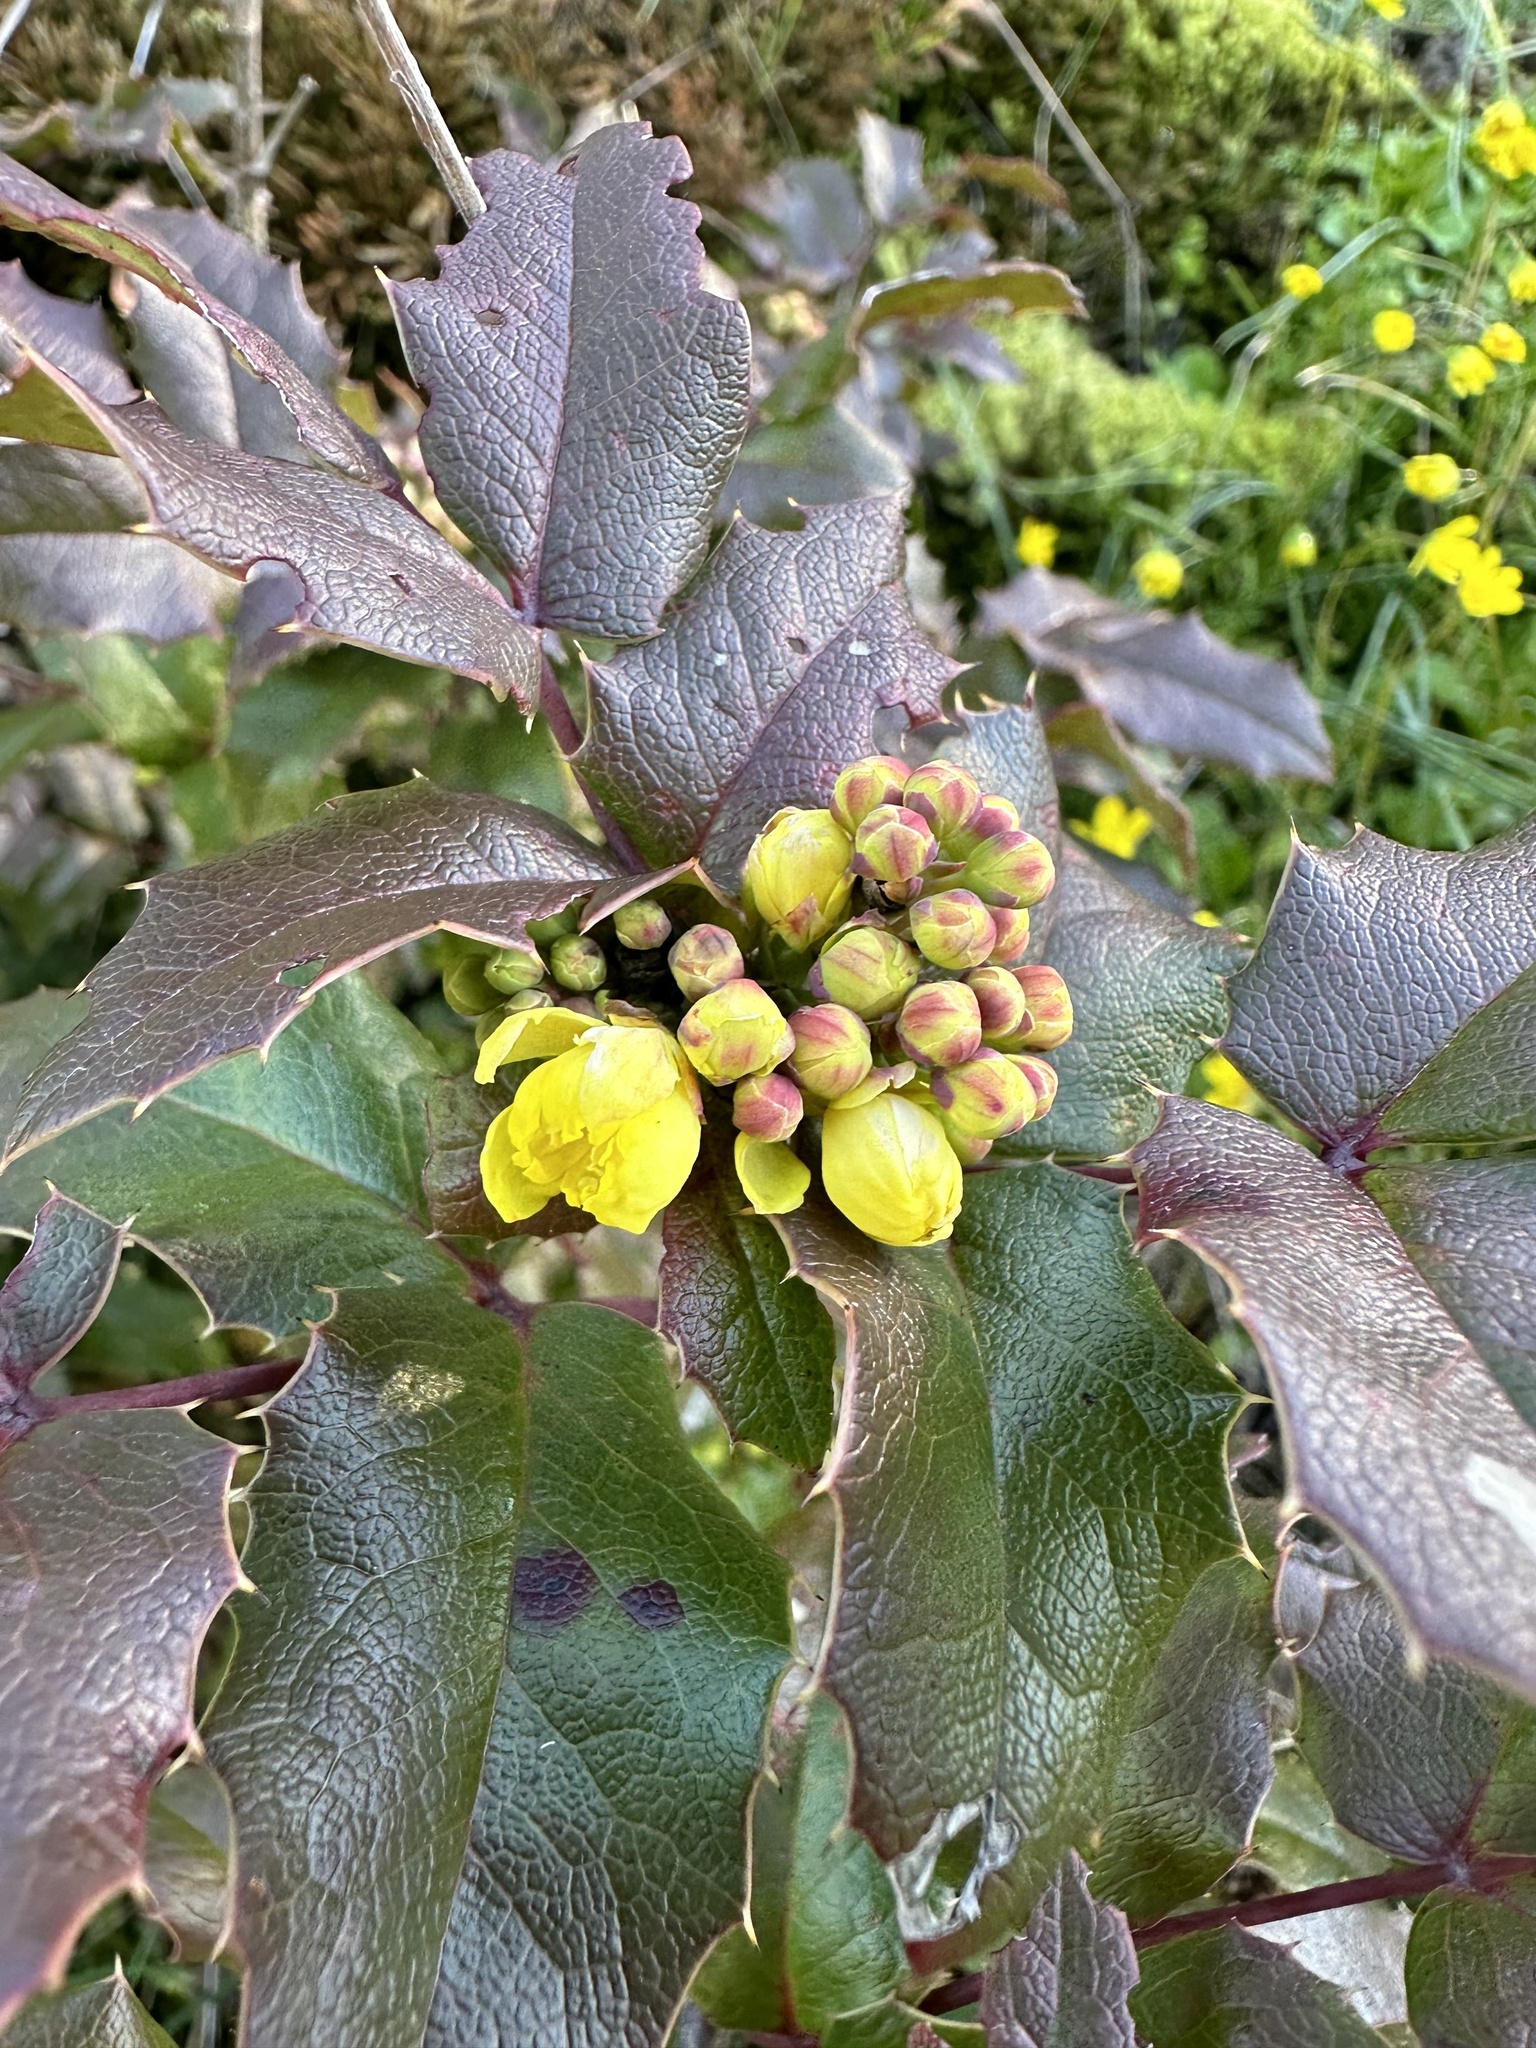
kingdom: Plantae
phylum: Tracheophyta
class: Magnoliopsida
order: Ranunculales
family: Berberidaceae
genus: Mahonia
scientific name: Mahonia aquifolium
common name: Oregon-grape
